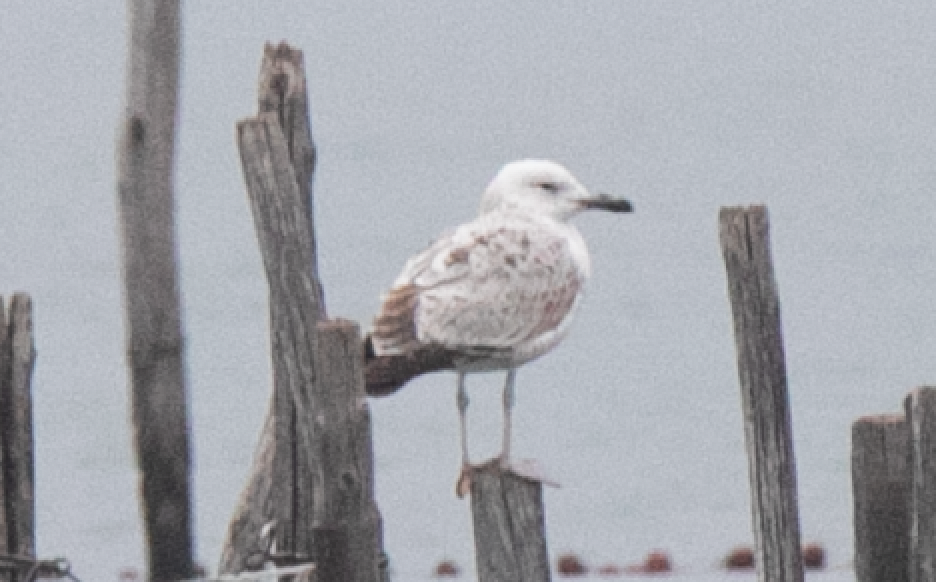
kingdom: Animalia
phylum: Chordata
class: Aves
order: Charadriiformes
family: Laridae
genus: Larus
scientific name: Larus cachinnans
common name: Caspian gull
